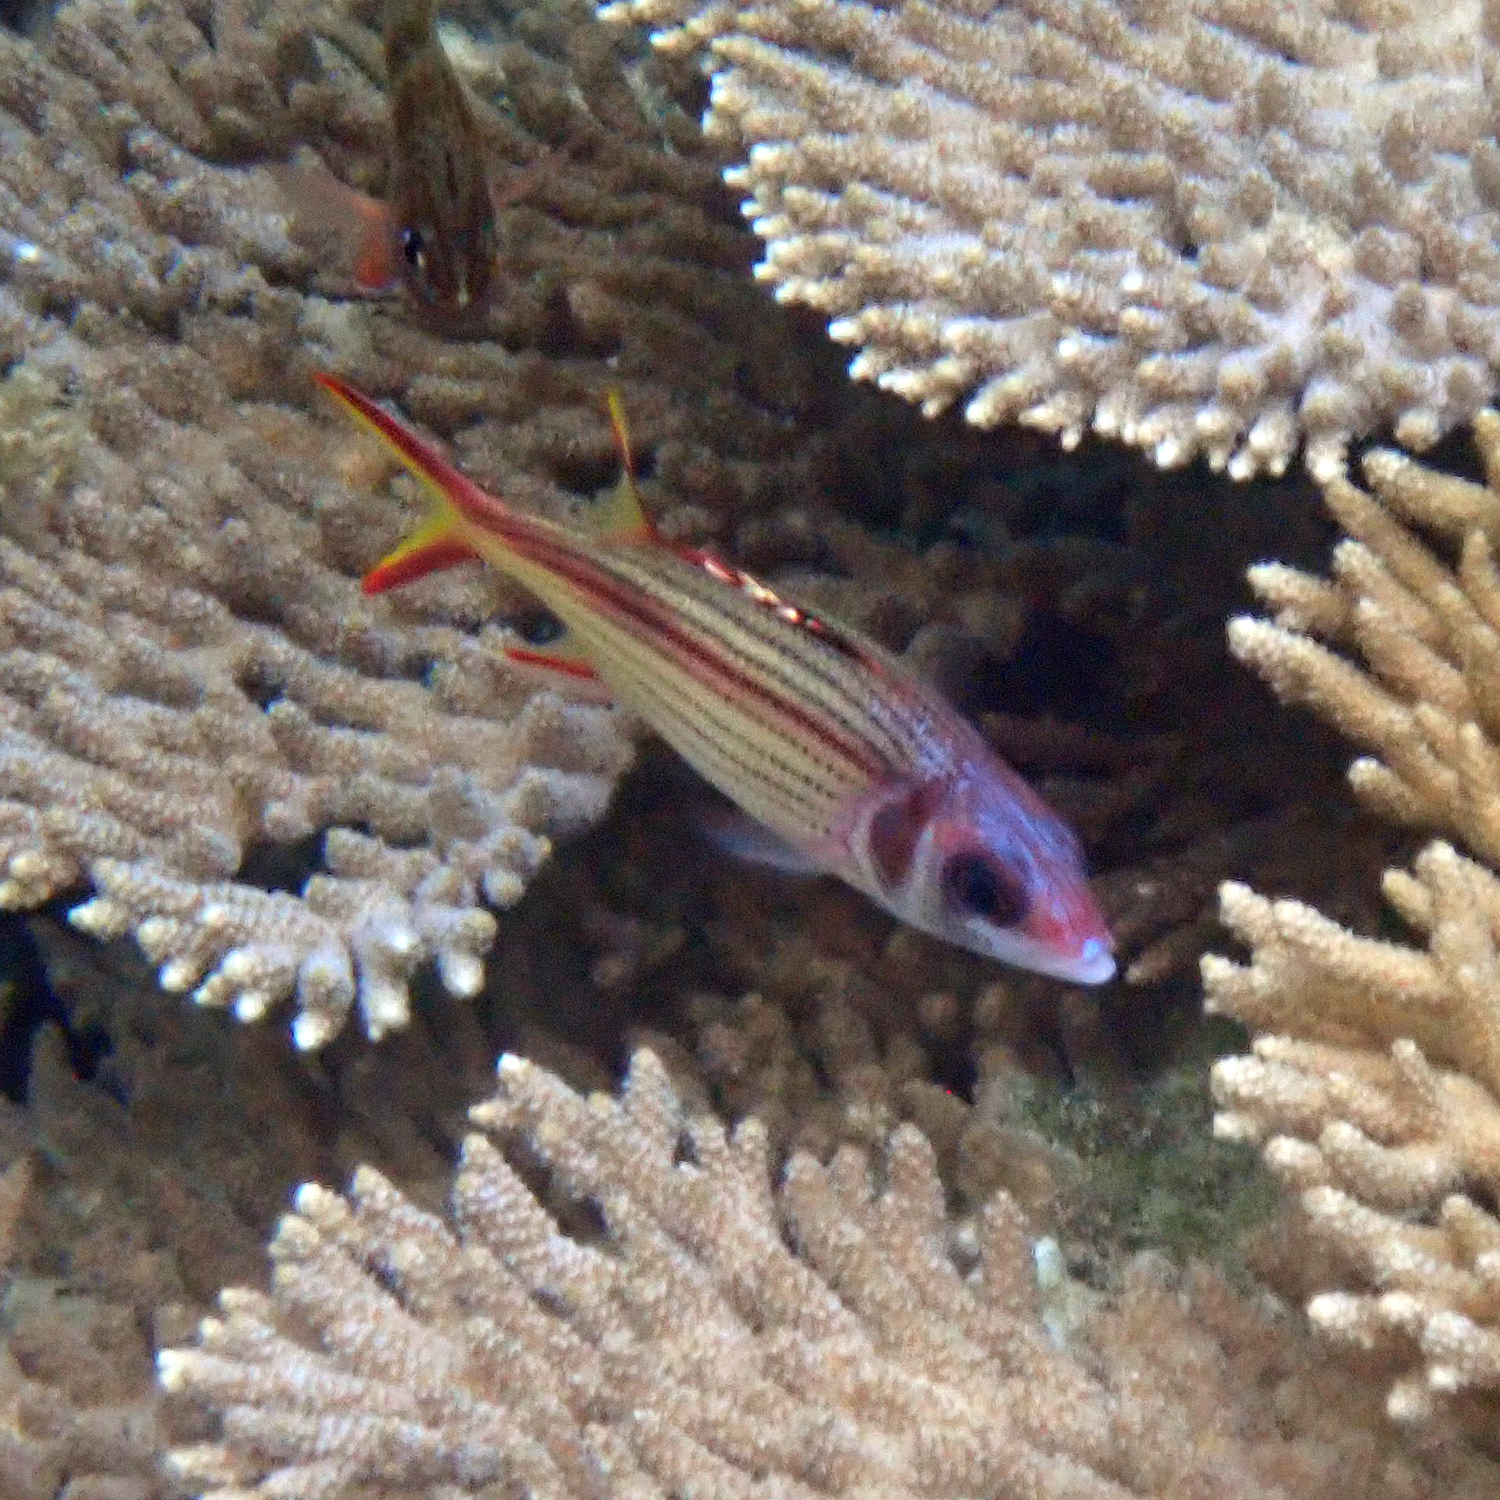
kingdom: Animalia
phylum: Chordata
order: Beryciformes
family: Holocentridae
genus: Neoniphon
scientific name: Neoniphon sammara
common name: Sammara squirrelfish
